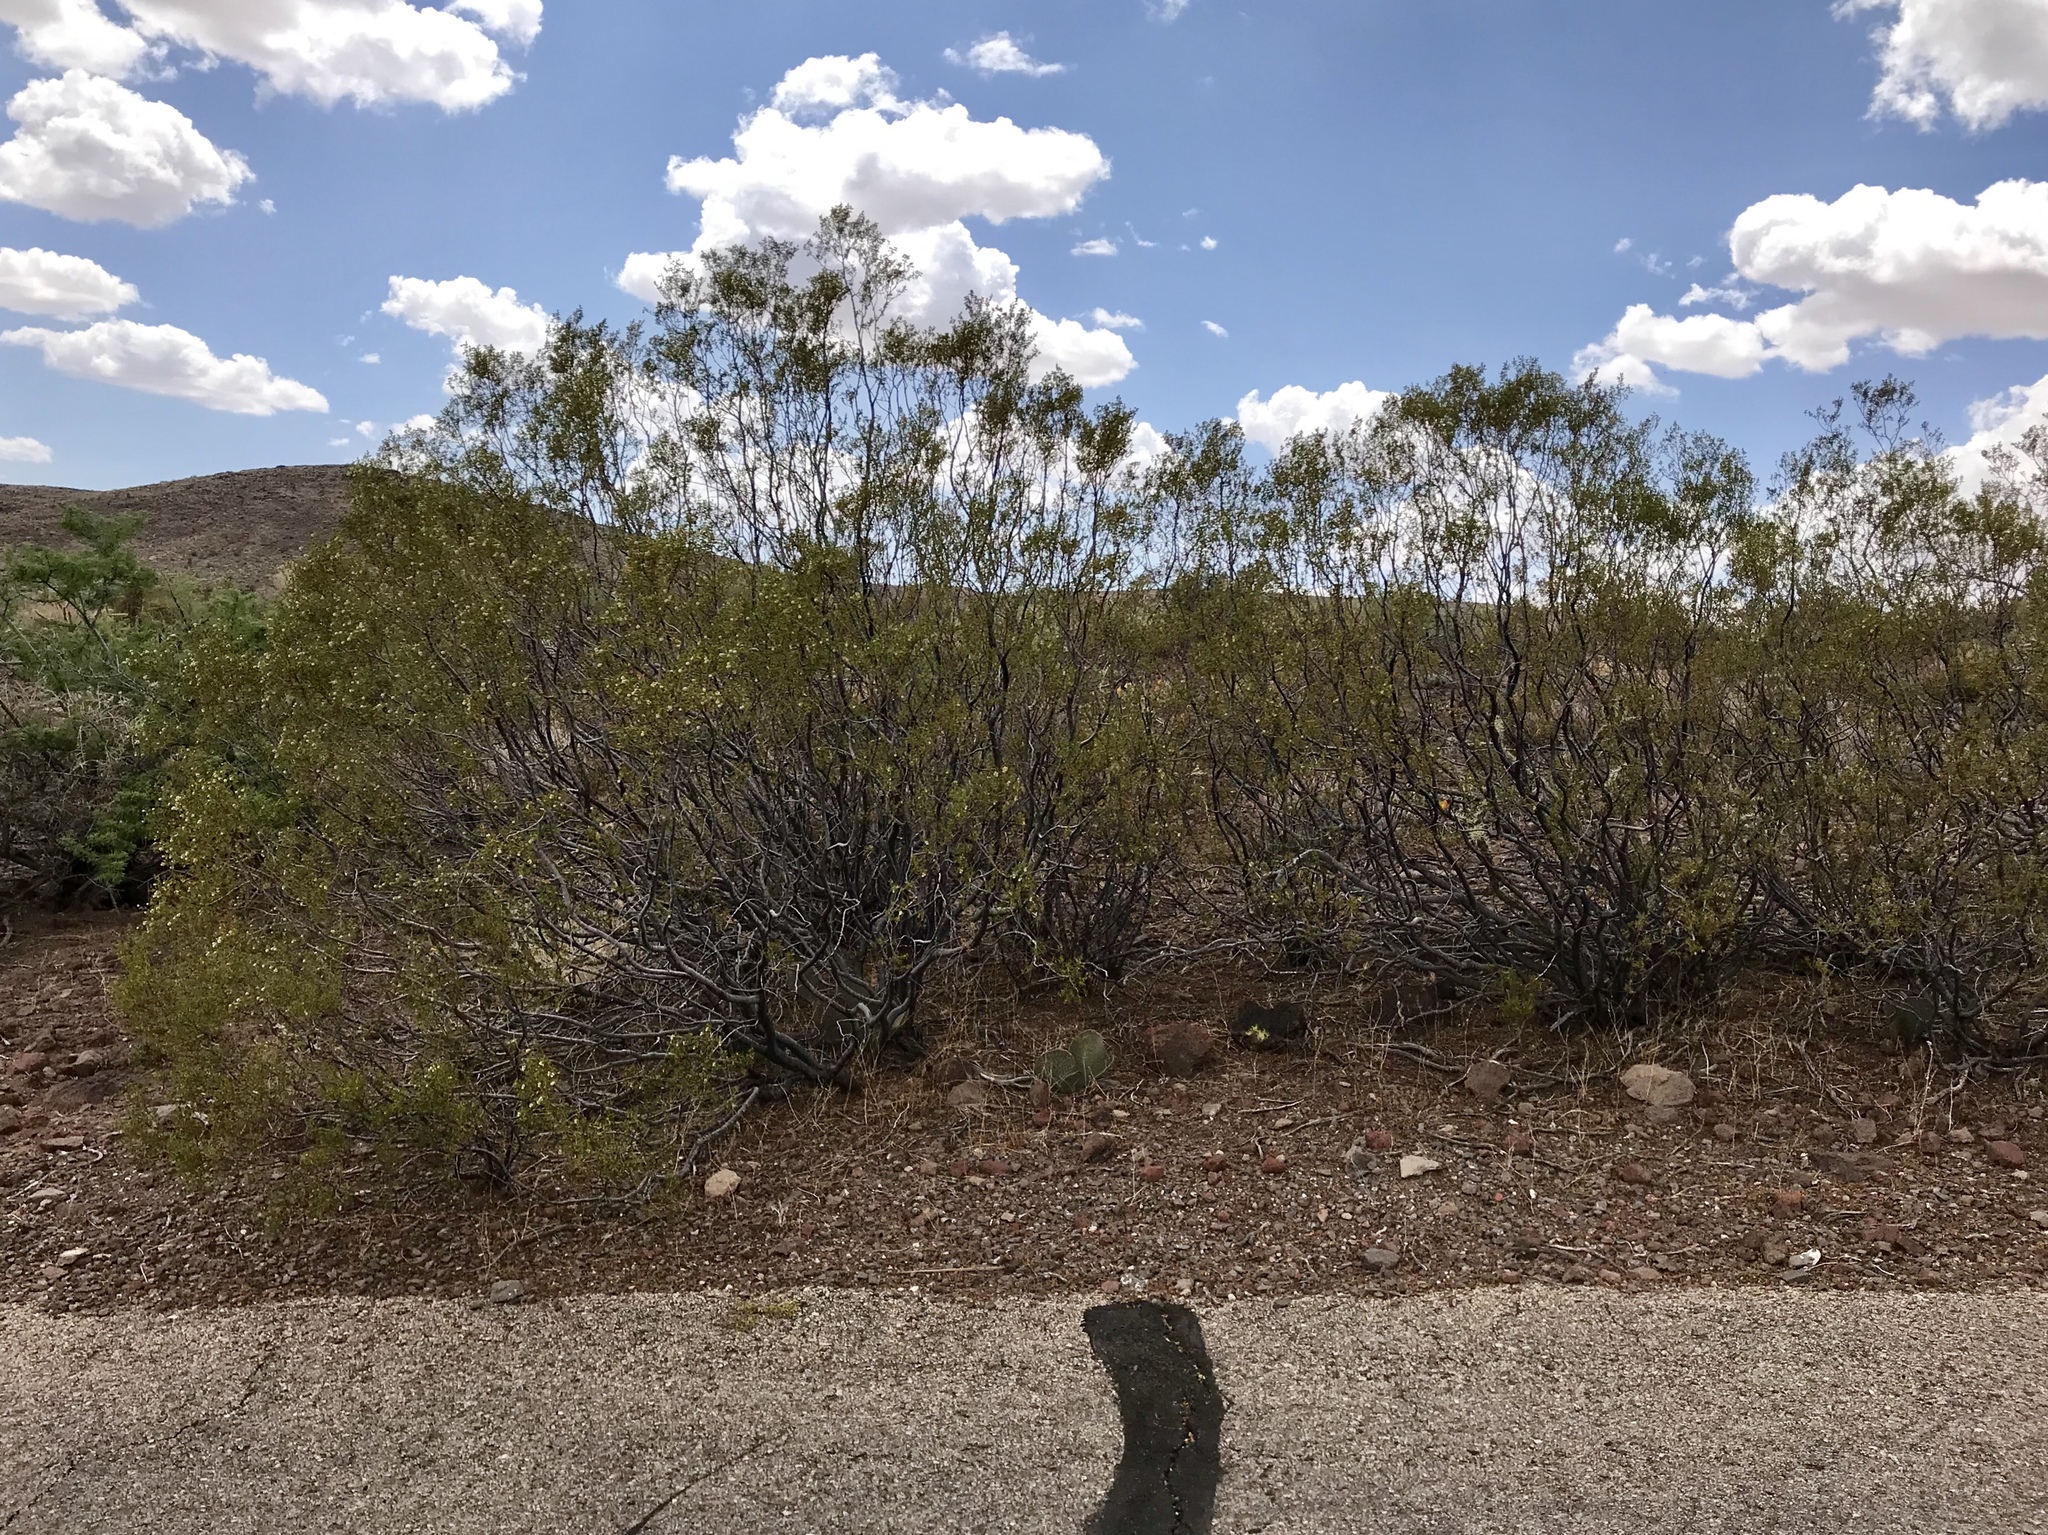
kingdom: Plantae
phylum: Tracheophyta
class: Magnoliopsida
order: Zygophyllales
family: Zygophyllaceae
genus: Larrea
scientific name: Larrea tridentata
